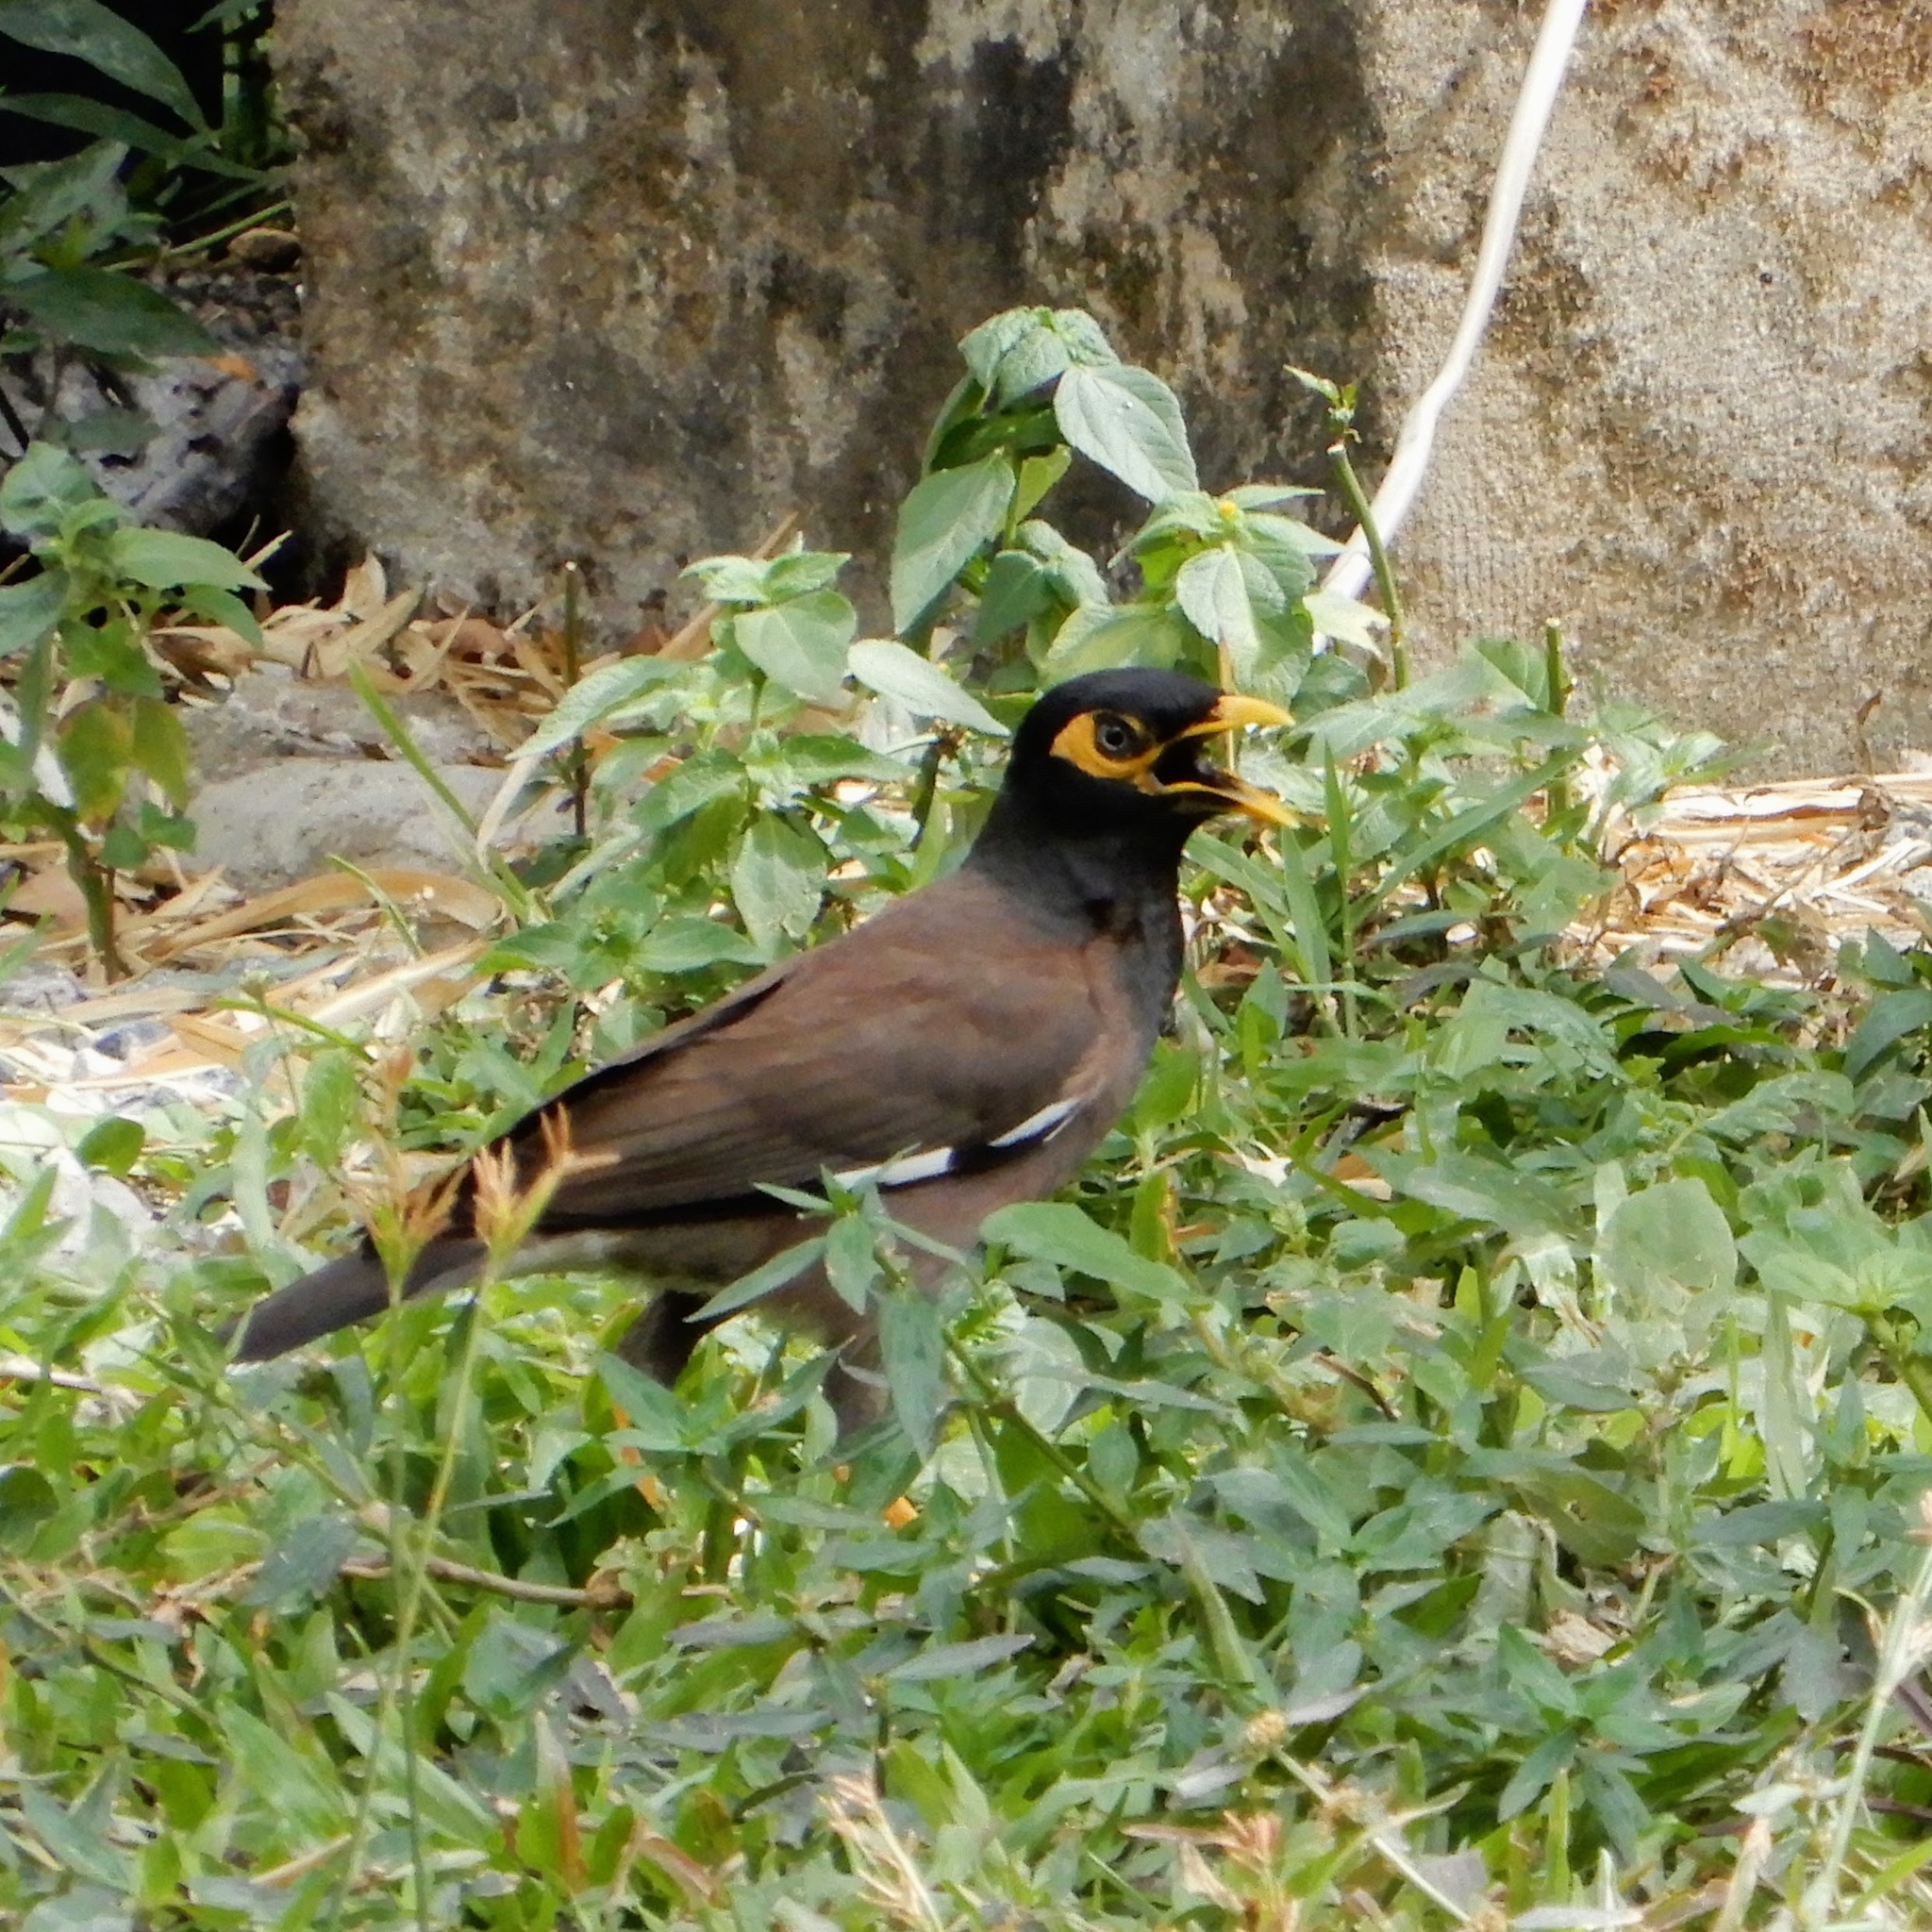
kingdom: Animalia
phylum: Chordata
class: Aves
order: Passeriformes
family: Sturnidae
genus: Acridotheres
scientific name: Acridotheres tristis
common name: Common myna
